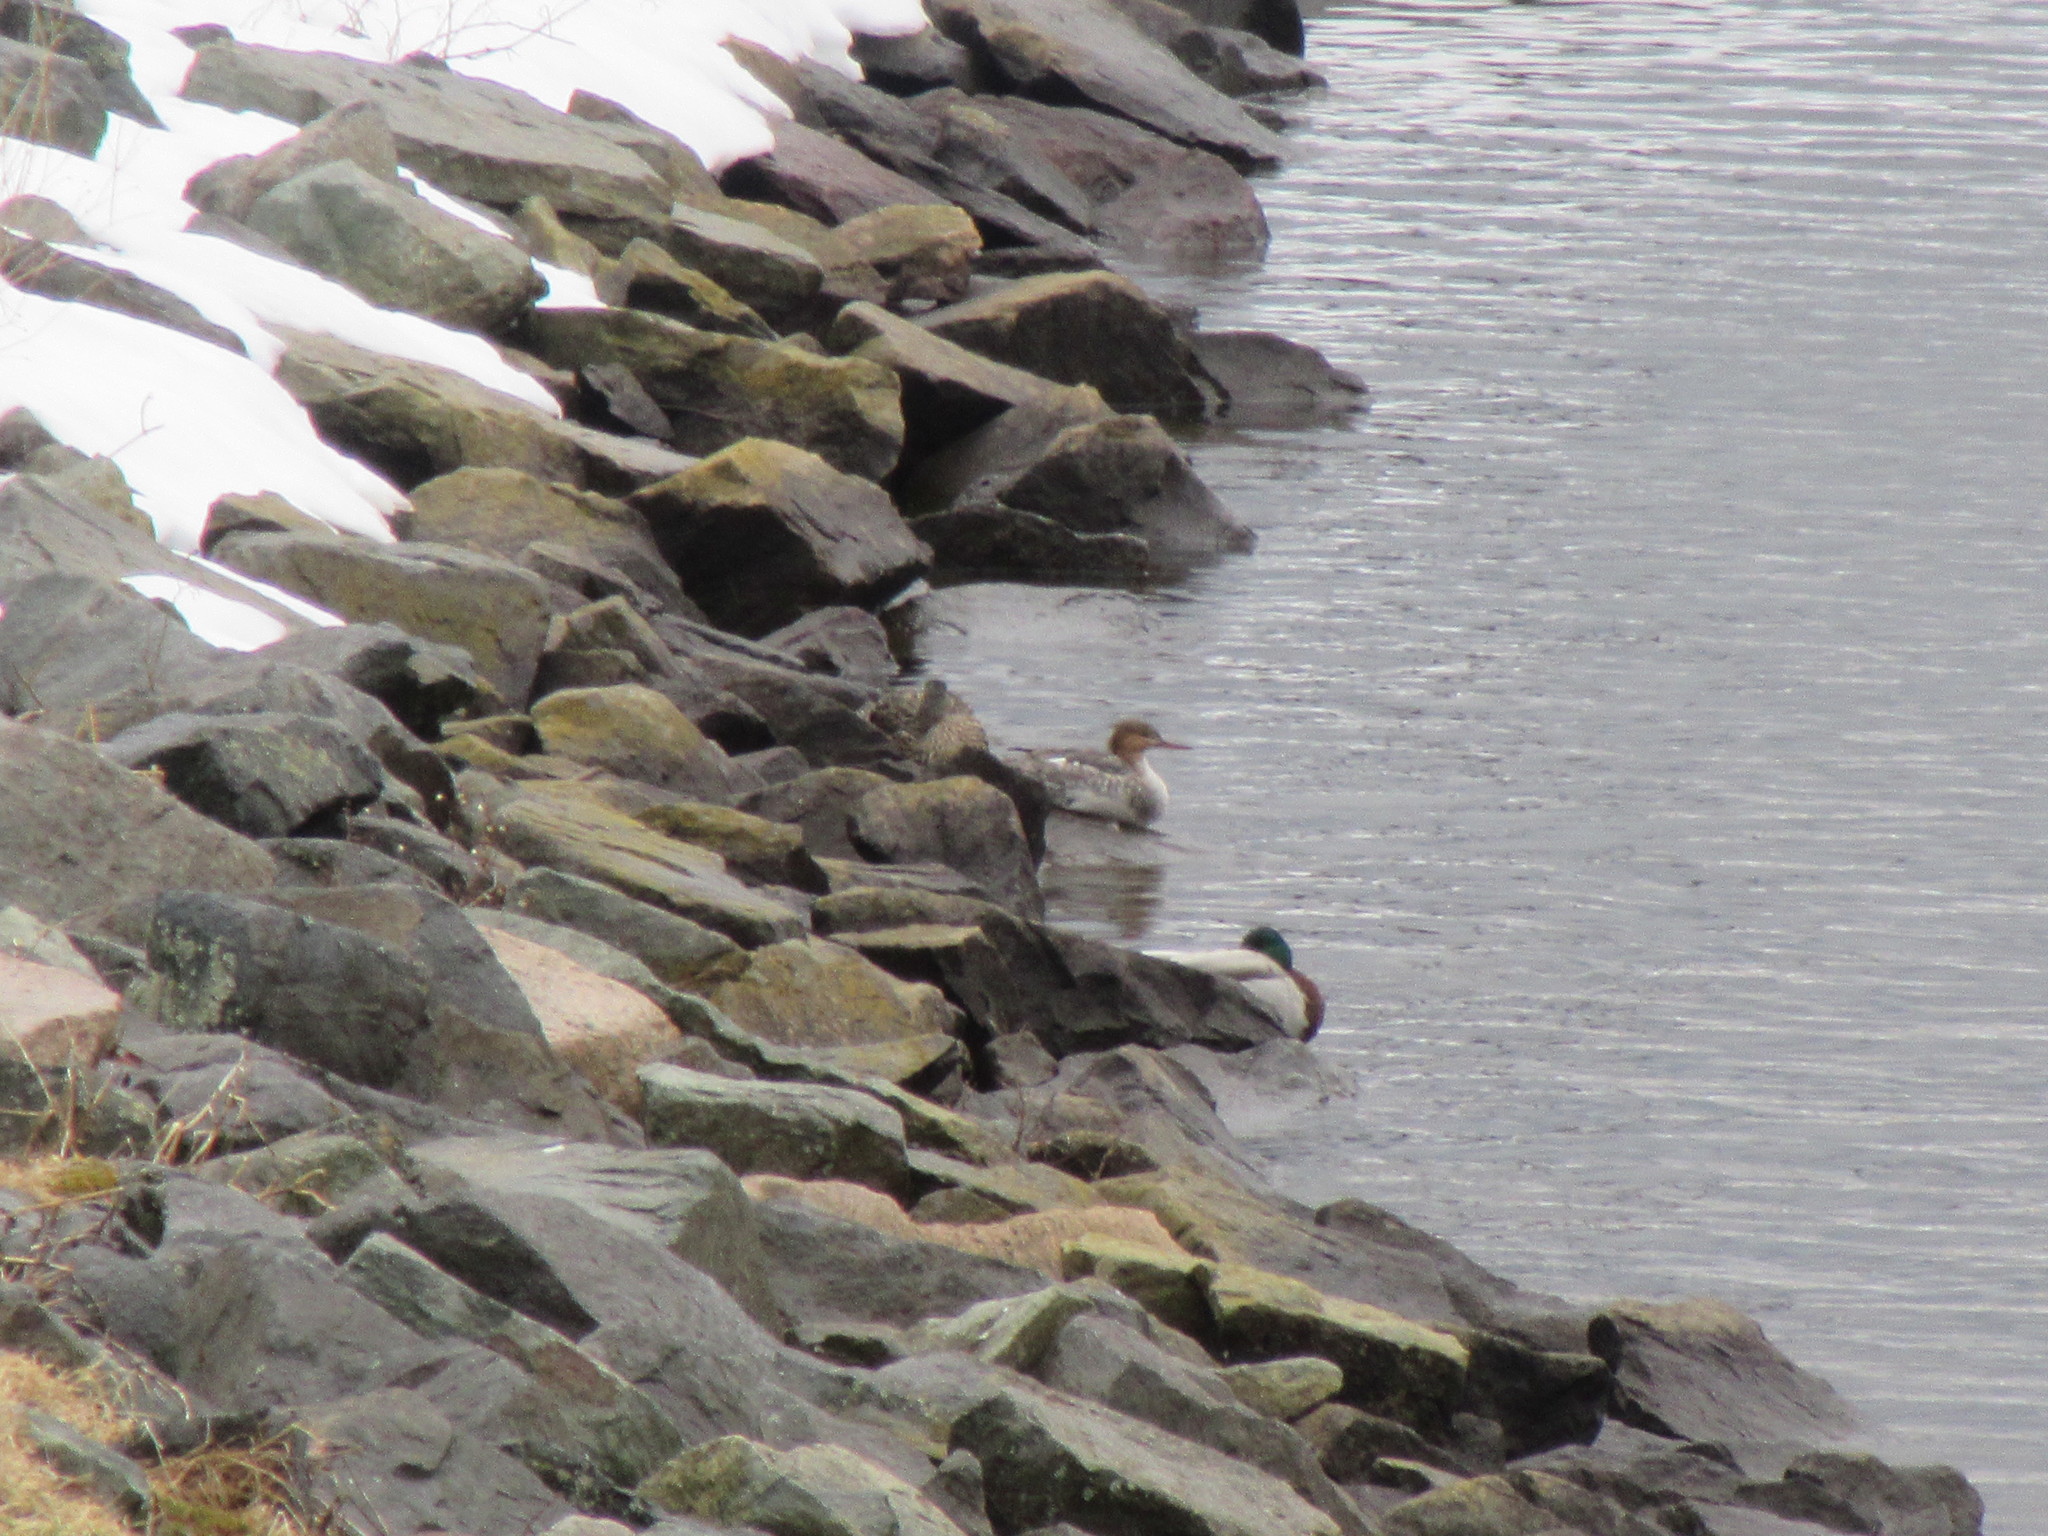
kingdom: Animalia
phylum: Chordata
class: Aves
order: Anseriformes
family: Anatidae
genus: Mergus
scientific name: Mergus serrator
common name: Red-breasted merganser
